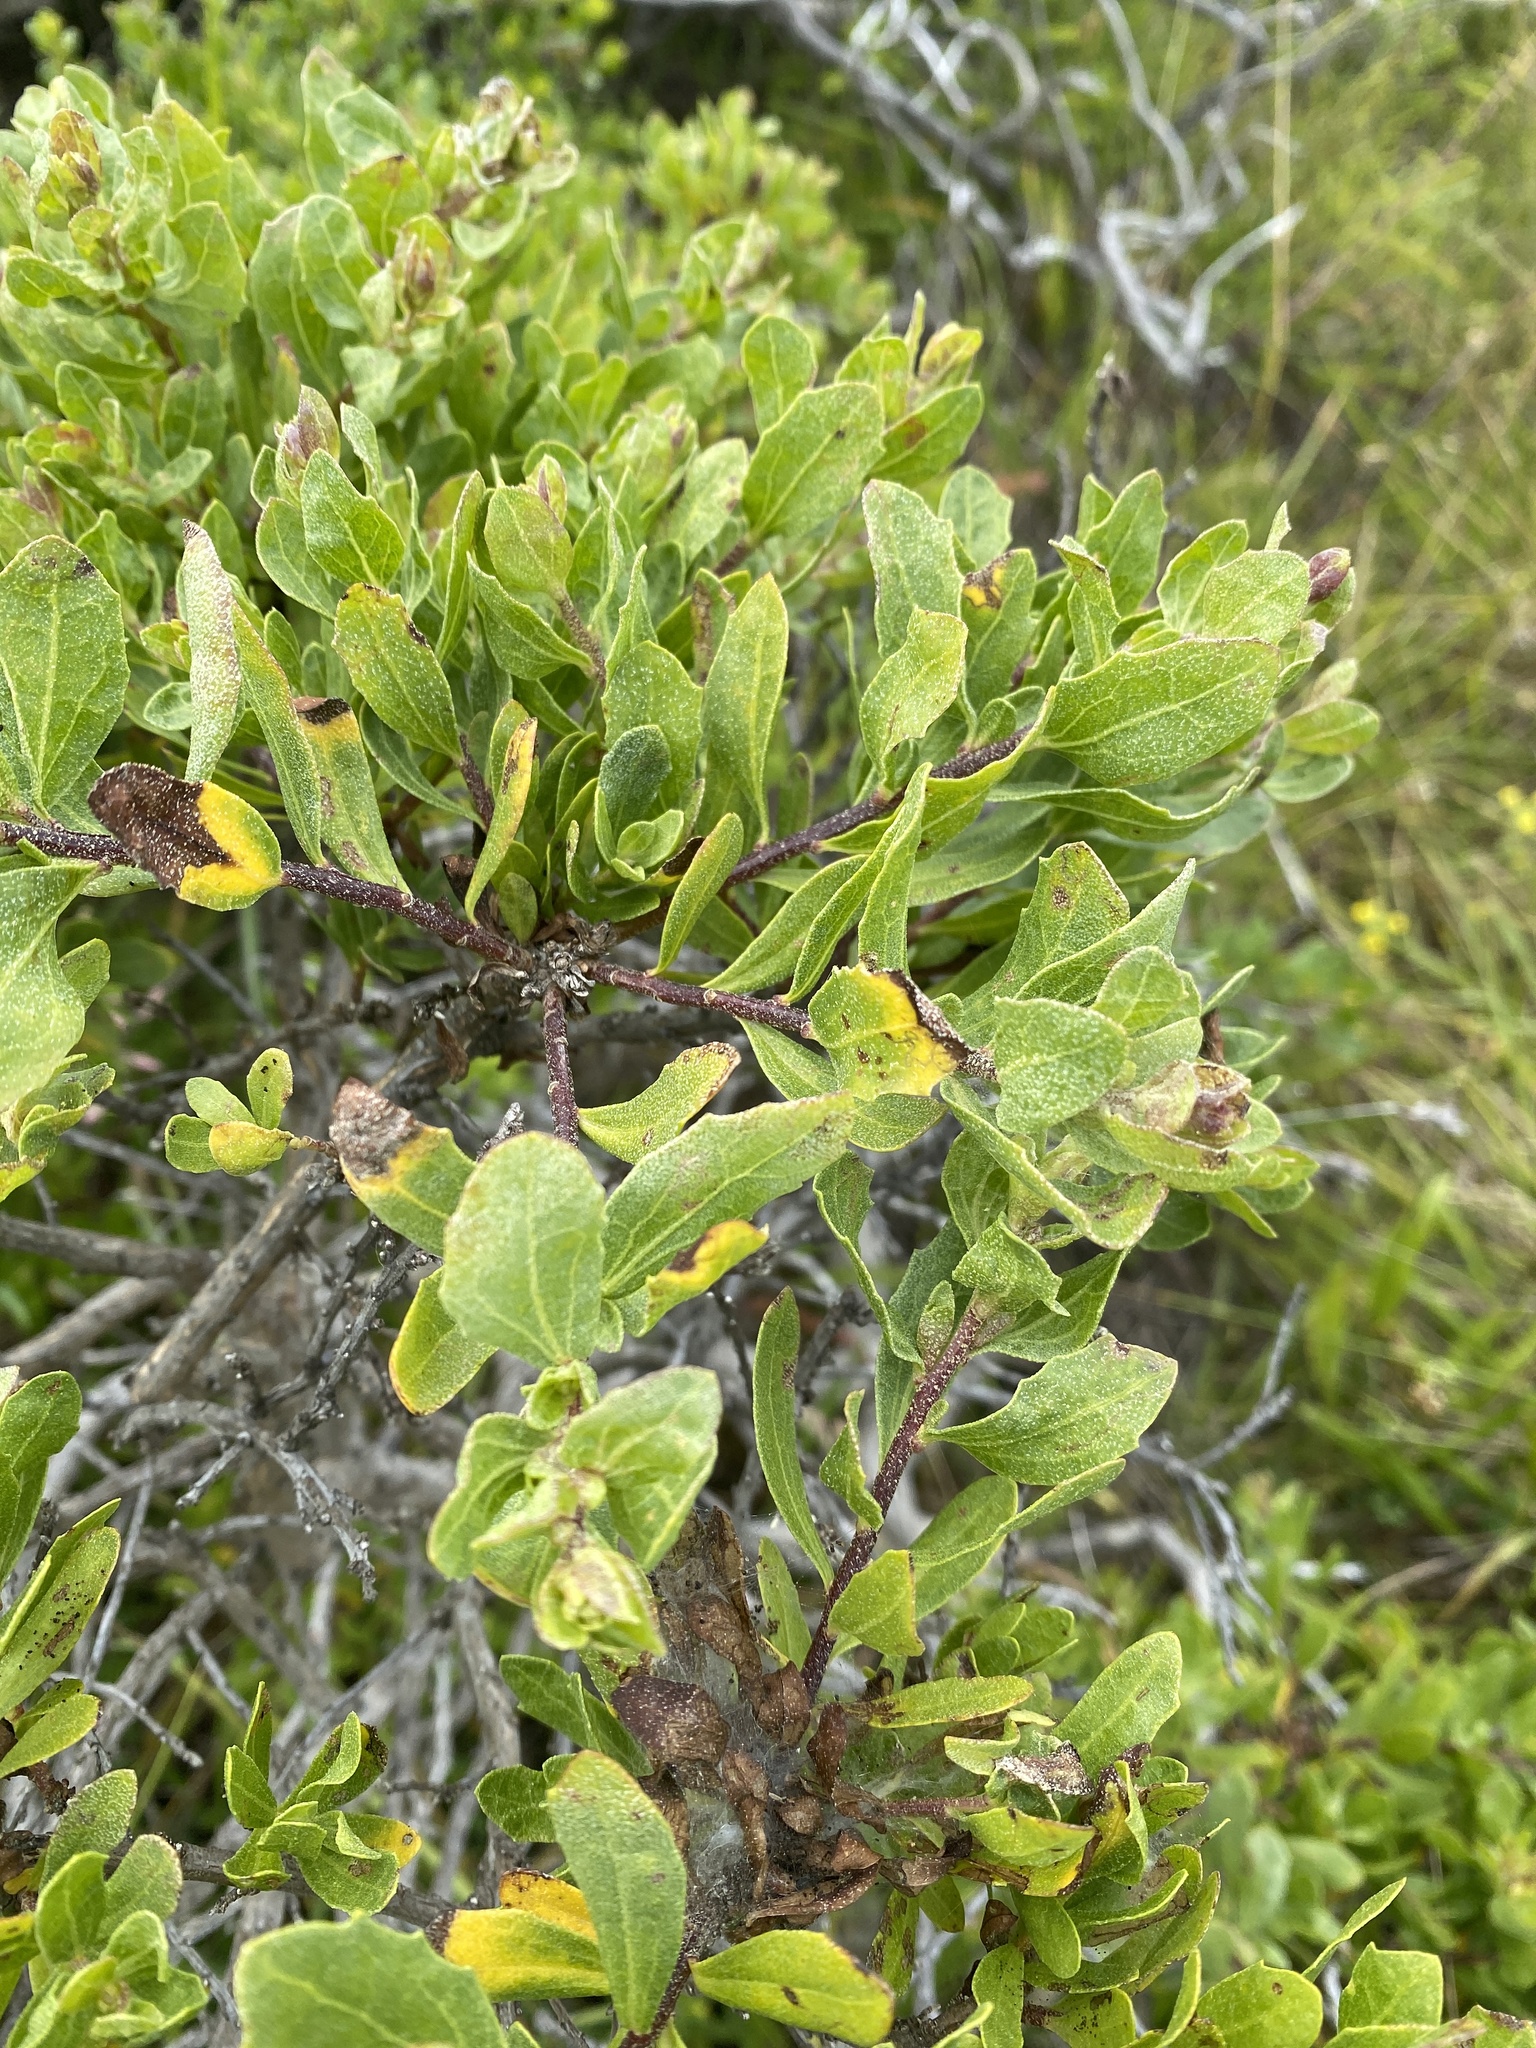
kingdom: Plantae
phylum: Tracheophyta
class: Magnoliopsida
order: Asterales
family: Asteraceae
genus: Baccharis
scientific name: Baccharis pilularis
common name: Coyotebrush
